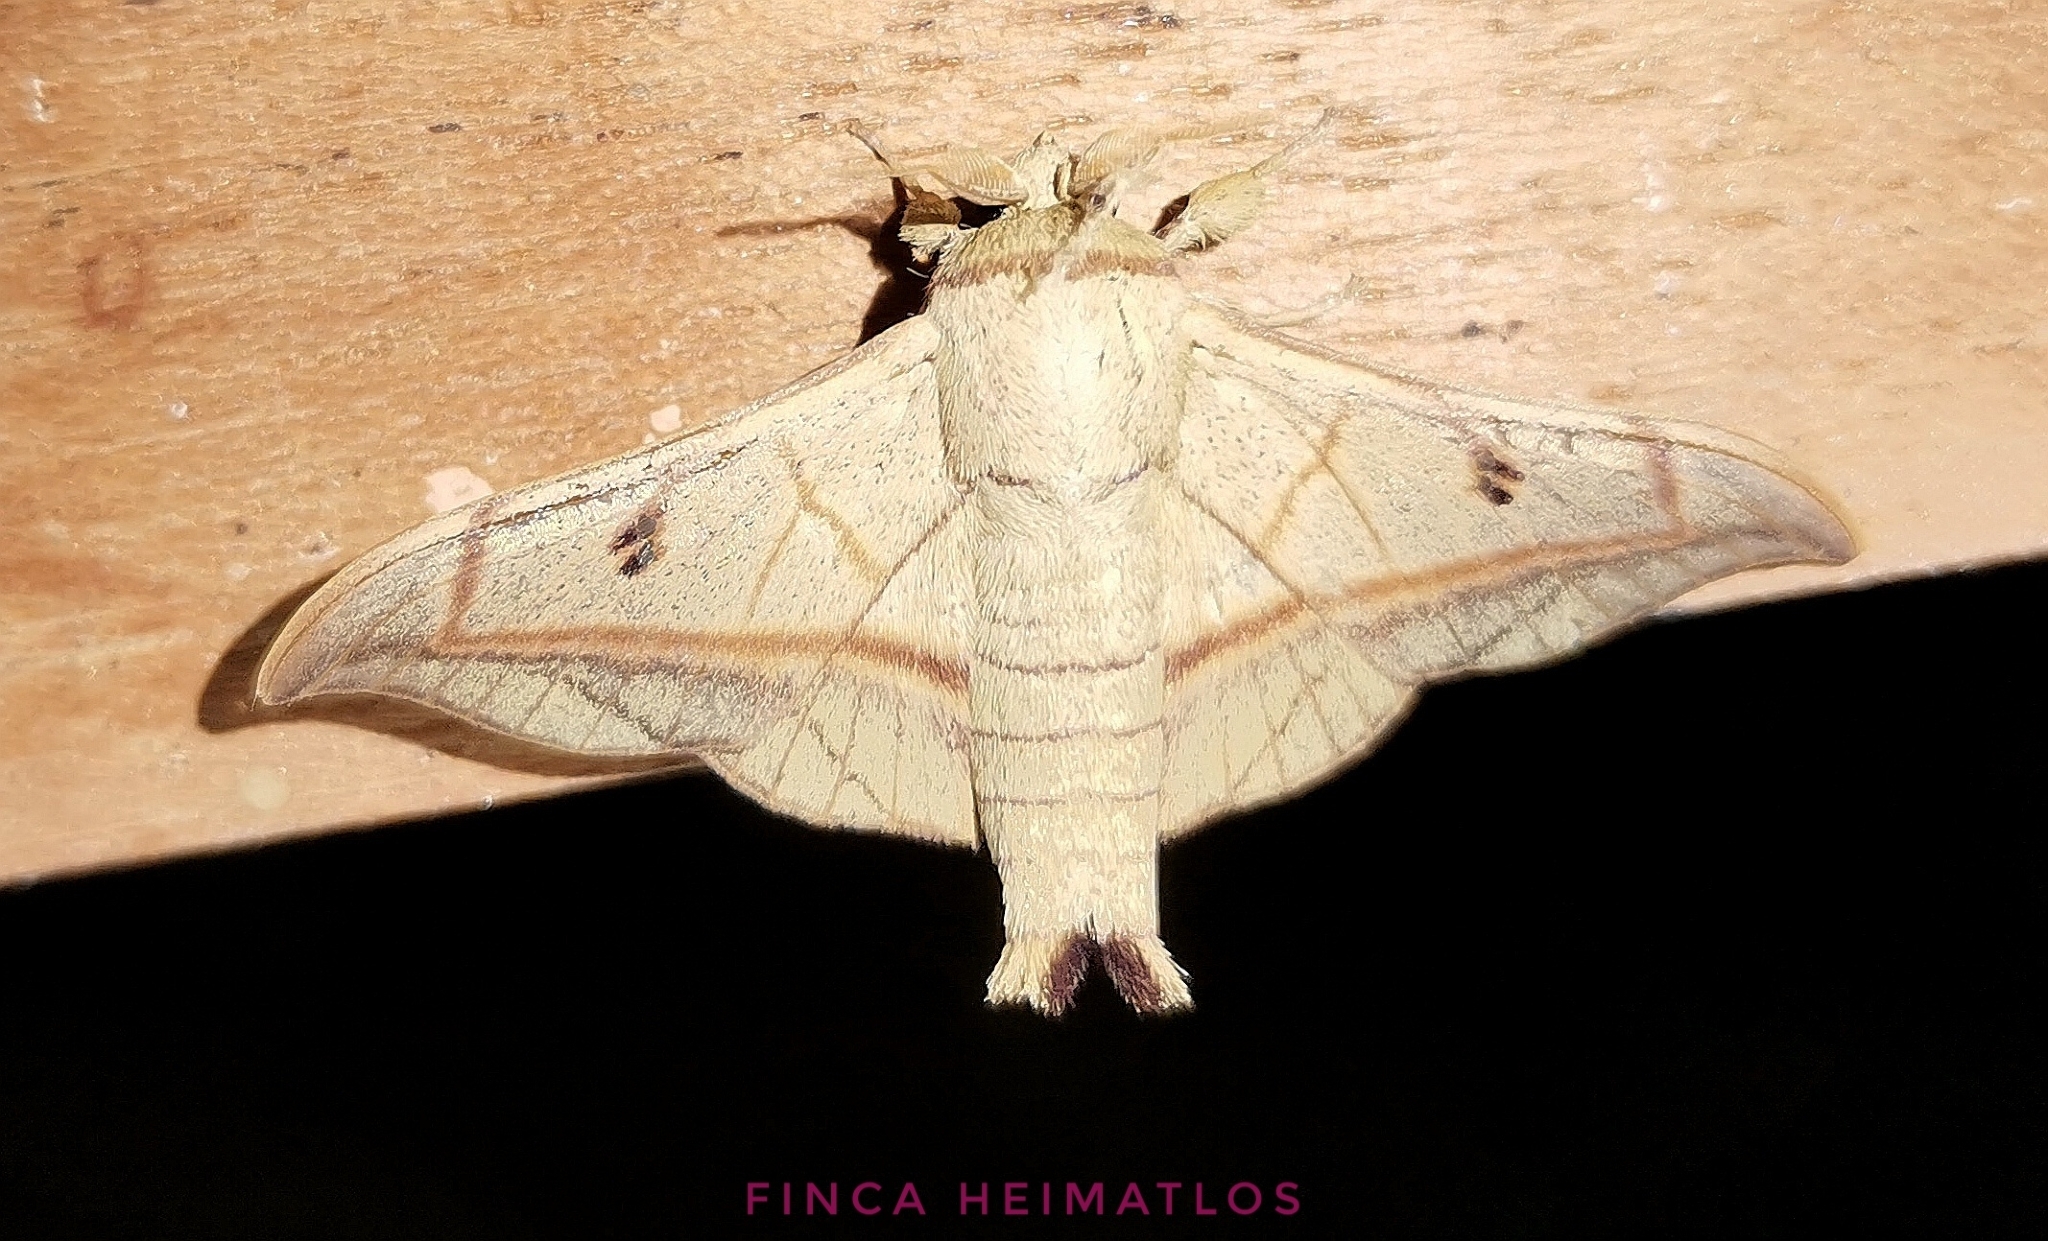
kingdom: Animalia
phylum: Arthropoda
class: Insecta
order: Lepidoptera
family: Mimallonidae
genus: Cicinnus
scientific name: Cicinnus forbesi
